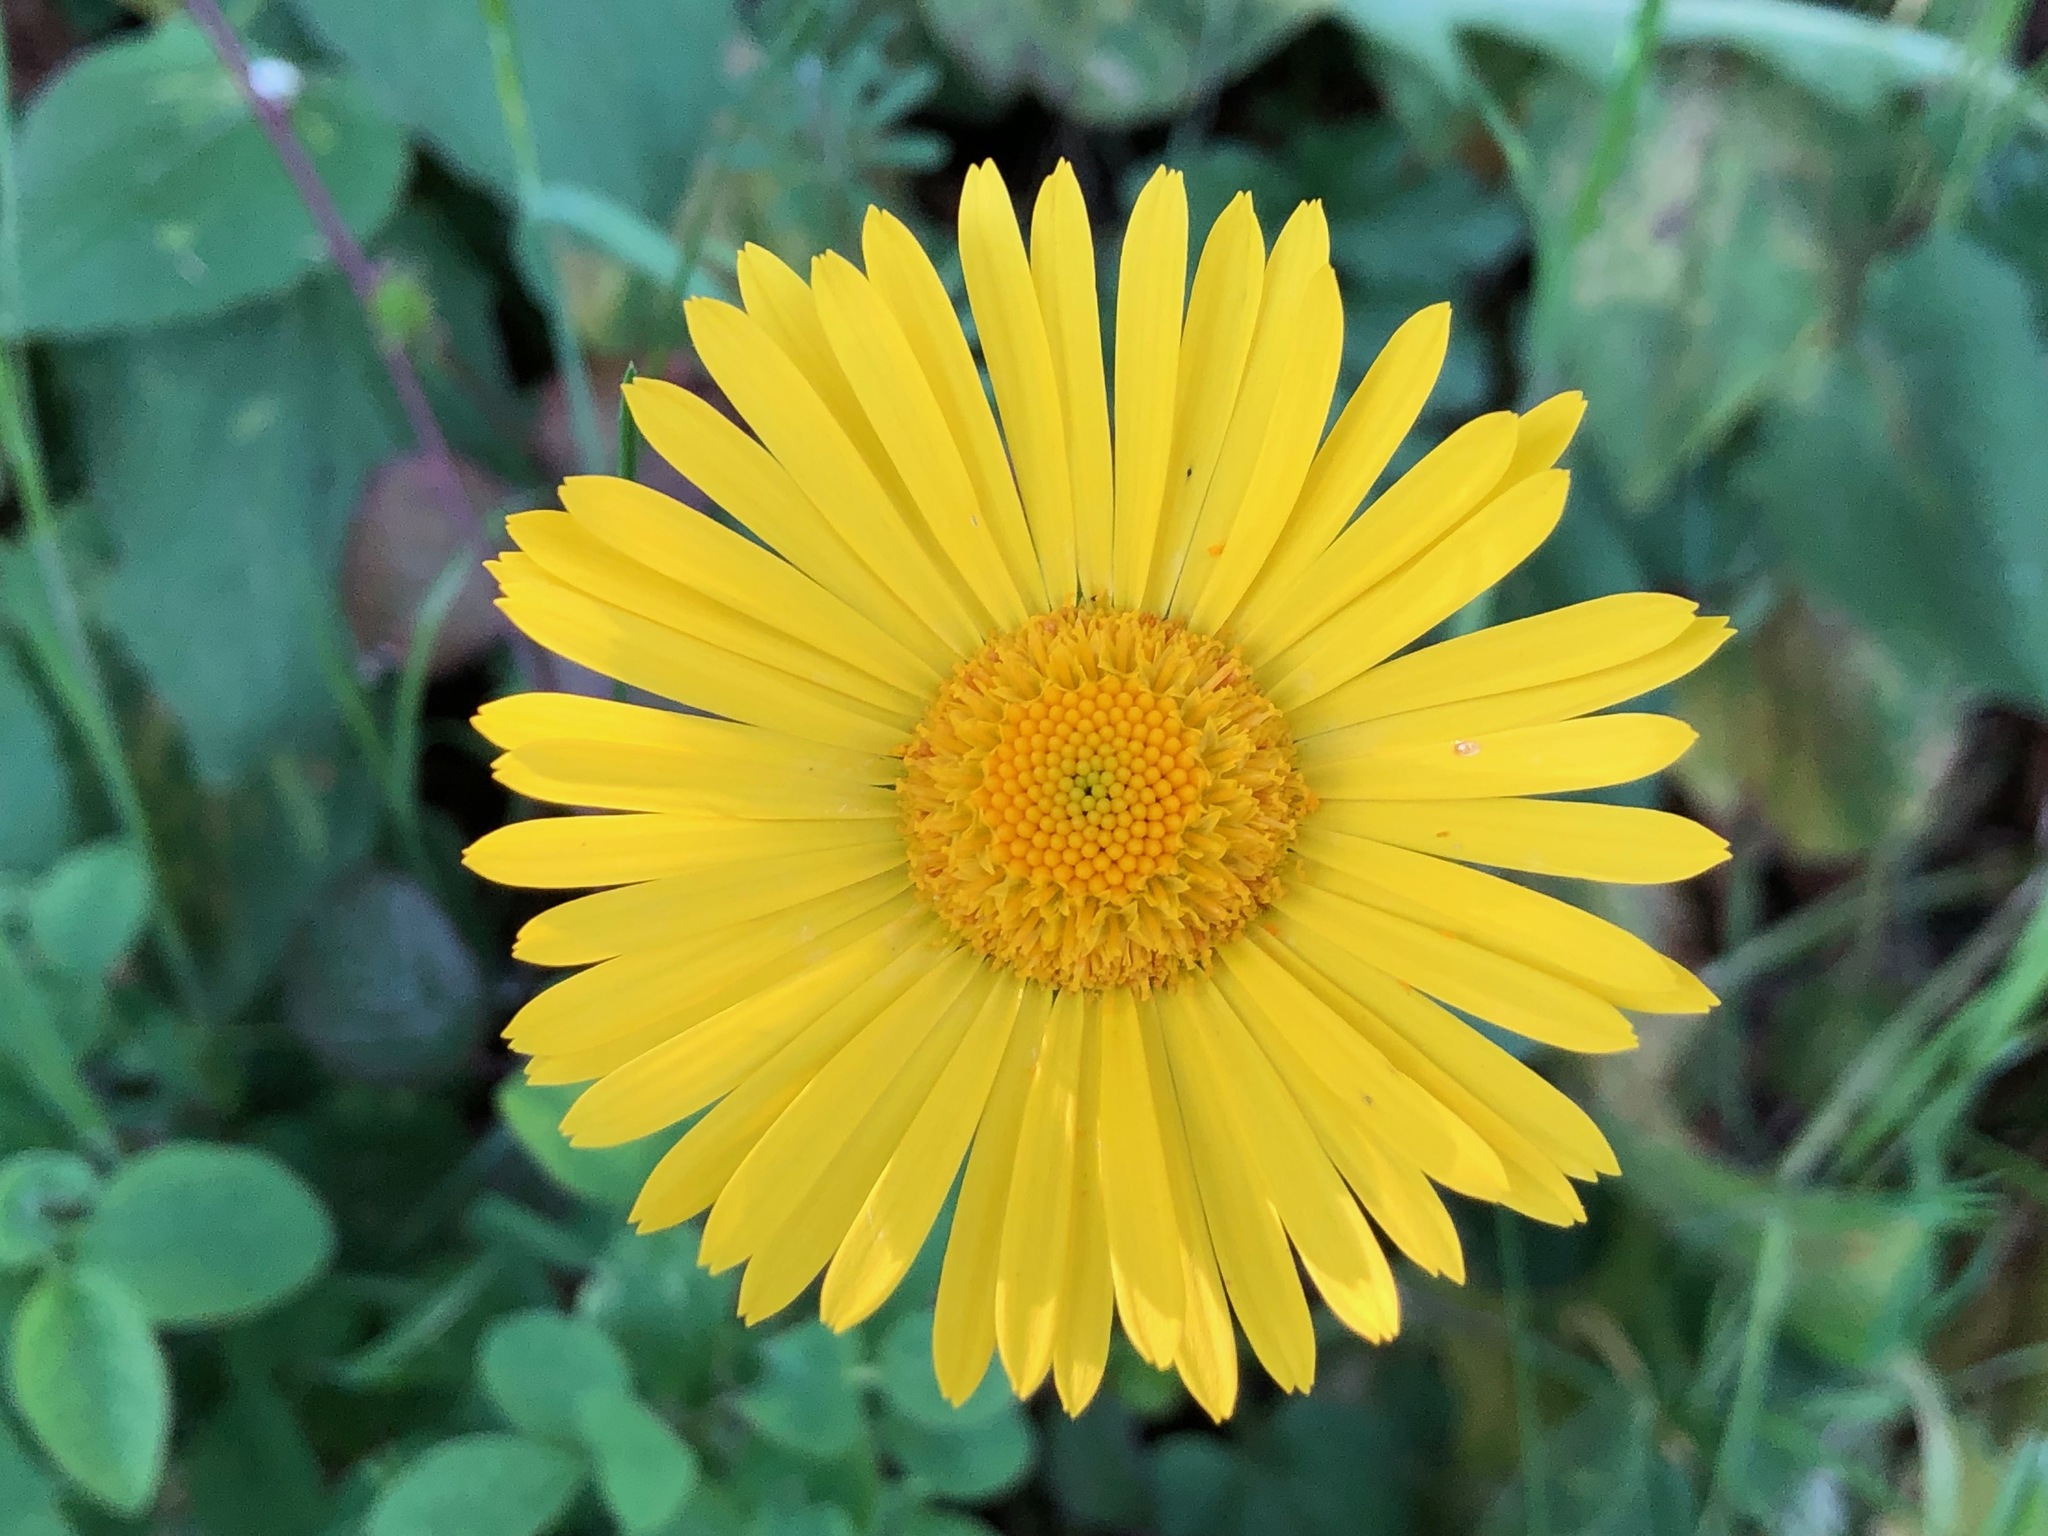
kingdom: Plantae
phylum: Tracheophyta
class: Magnoliopsida
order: Asterales
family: Asteraceae
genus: Doronicum
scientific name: Doronicum pardalianches
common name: Leopard's-bane
